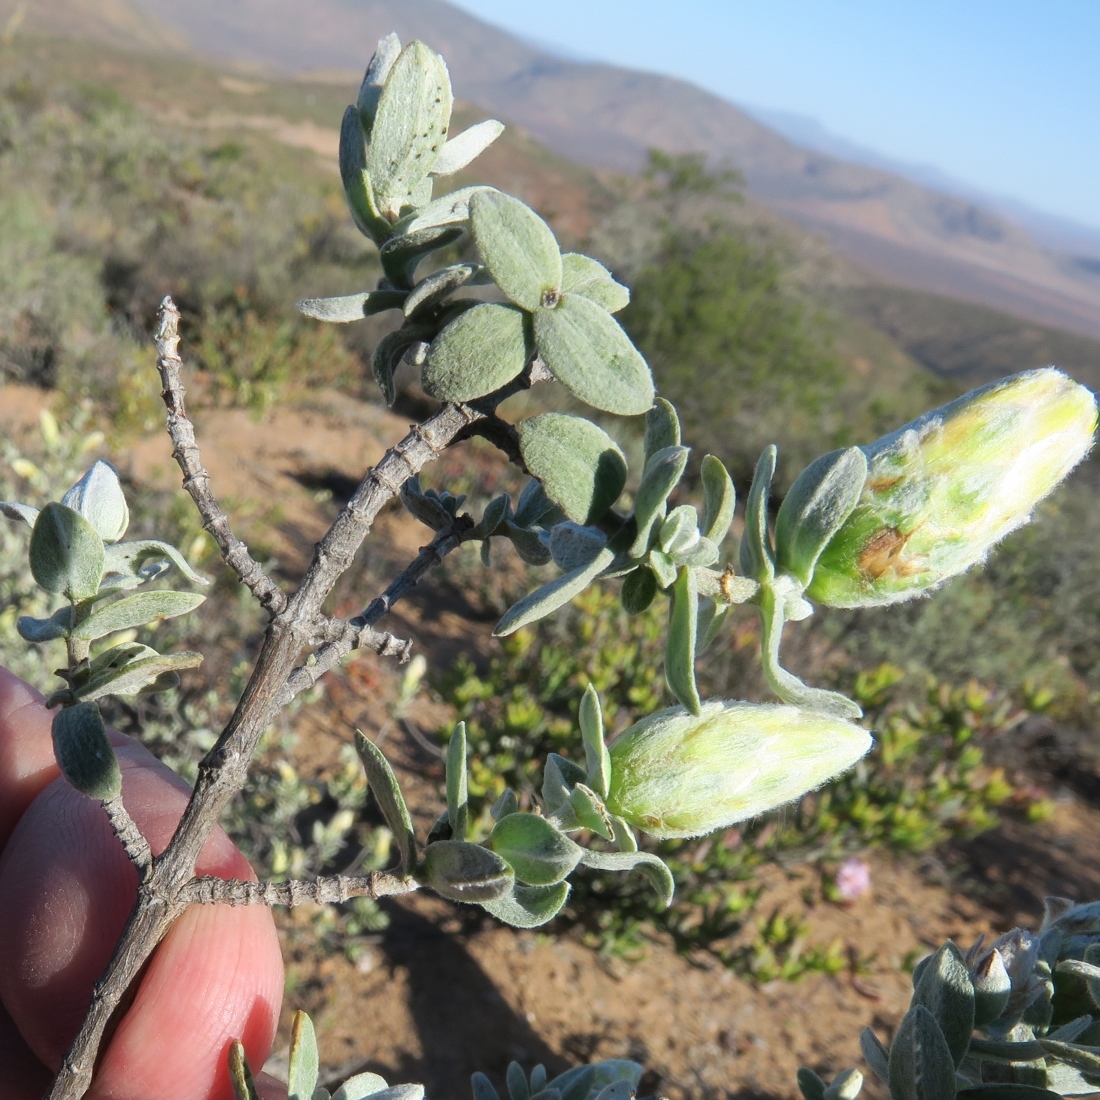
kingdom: Plantae
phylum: Tracheophyta
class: Magnoliopsida
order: Asterales
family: Asteraceae
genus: Pteronia
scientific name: Pteronia ovalifolia
